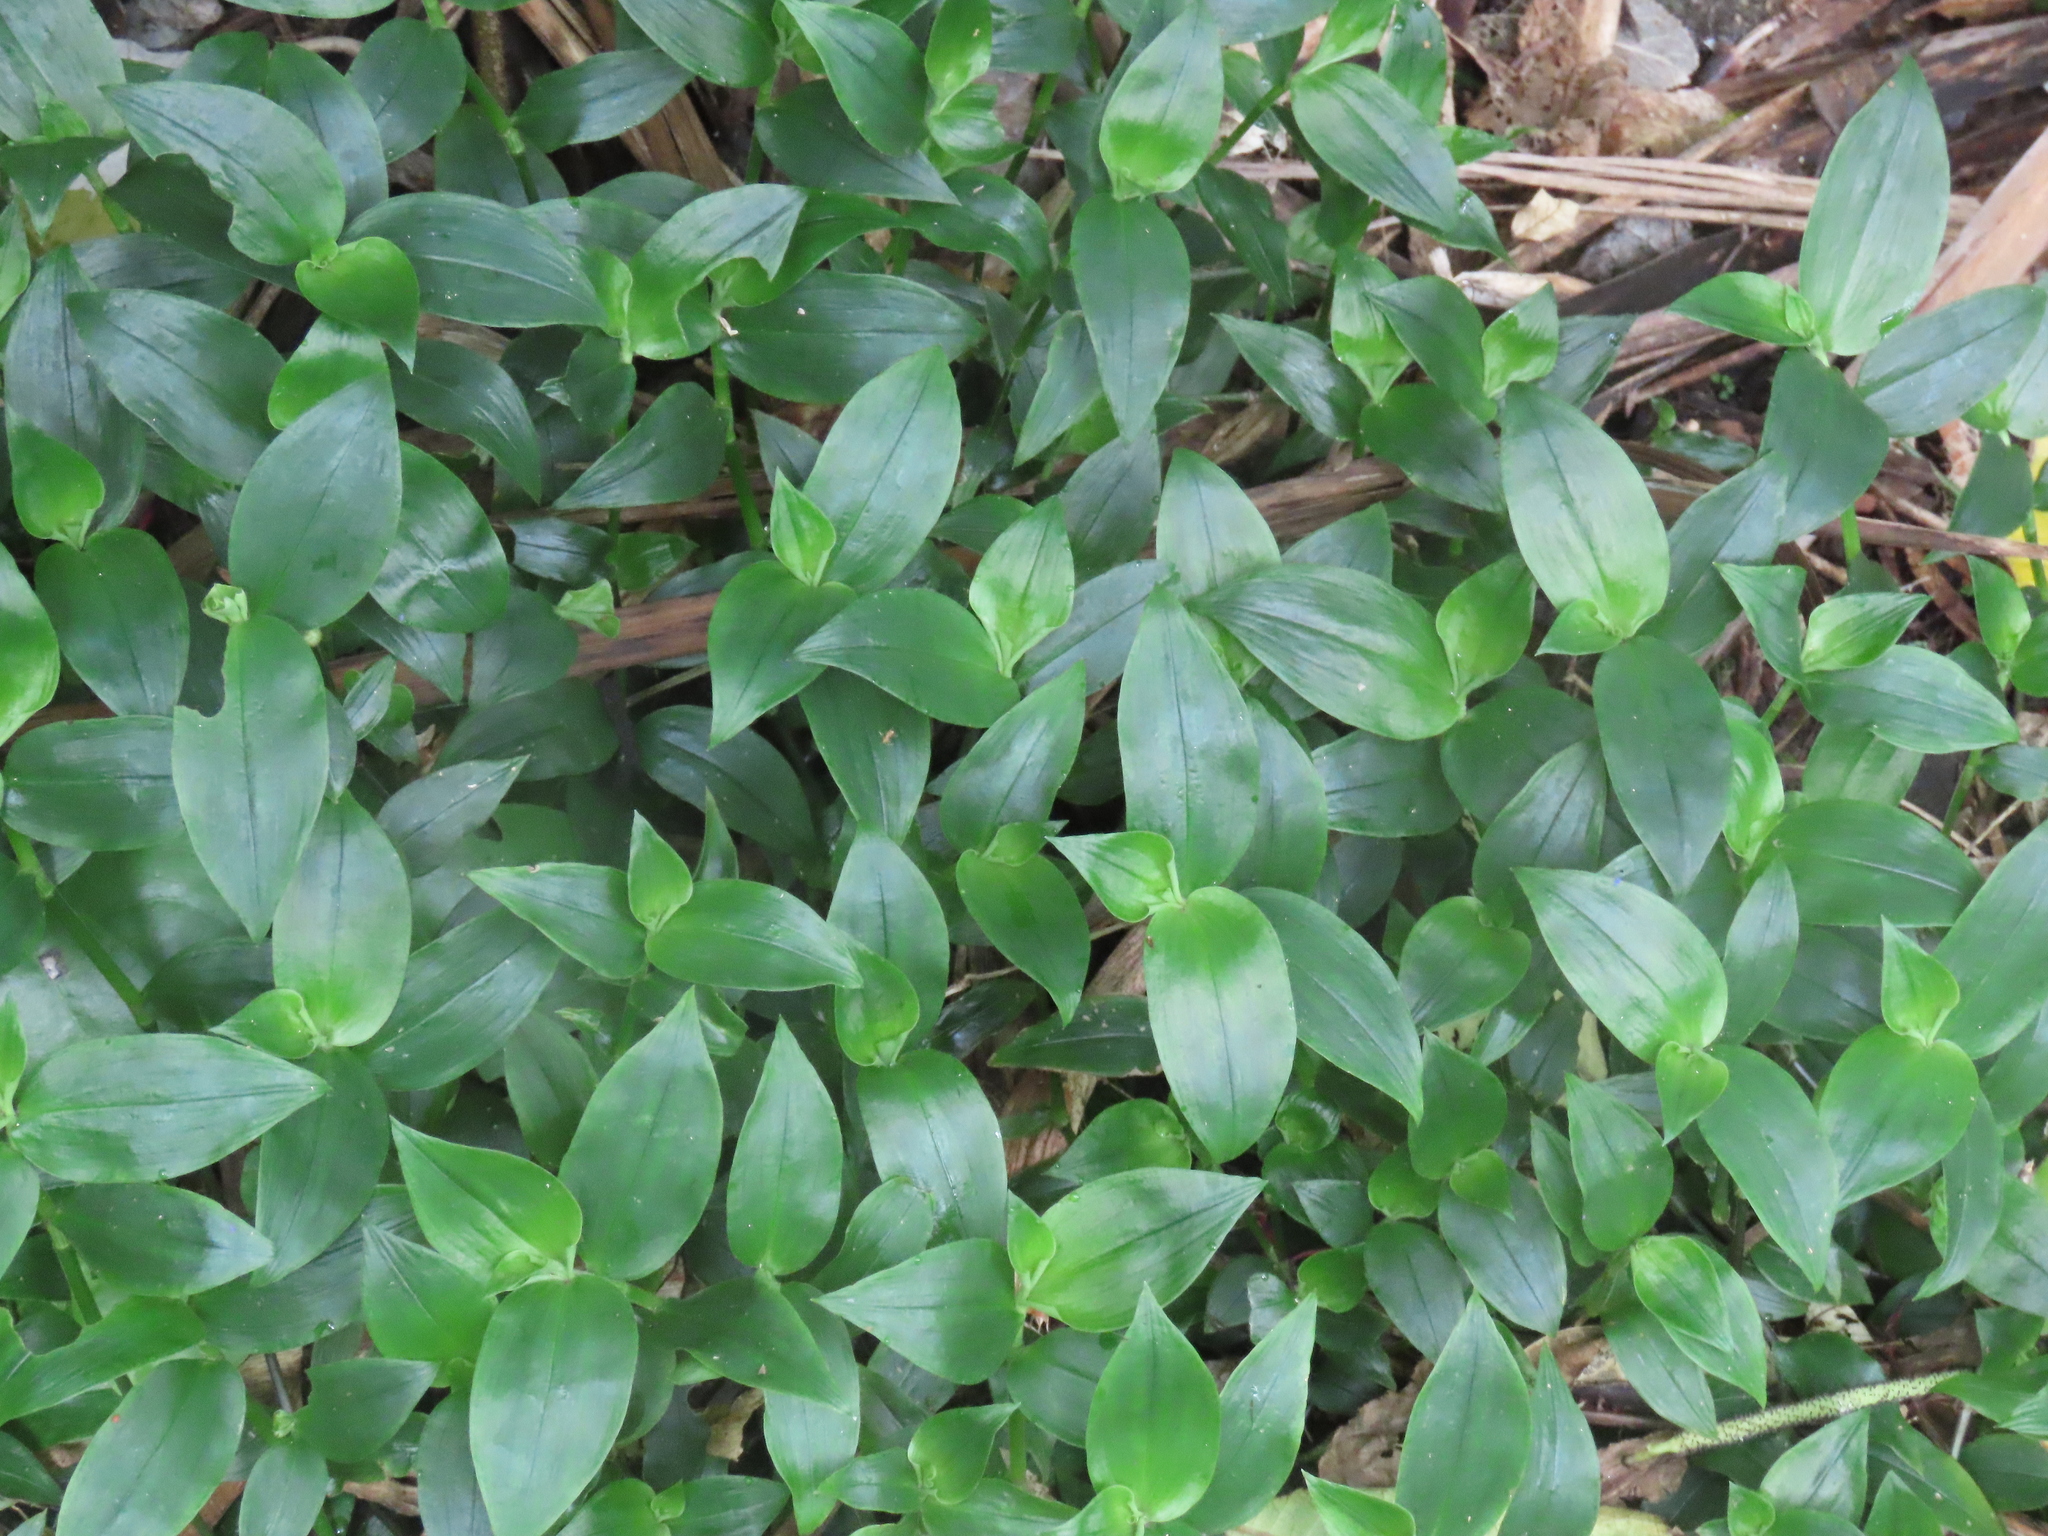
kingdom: Plantae
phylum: Tracheophyta
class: Liliopsida
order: Commelinales
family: Commelinaceae
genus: Tradescantia
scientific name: Tradescantia fluminensis
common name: Wandering-jew
